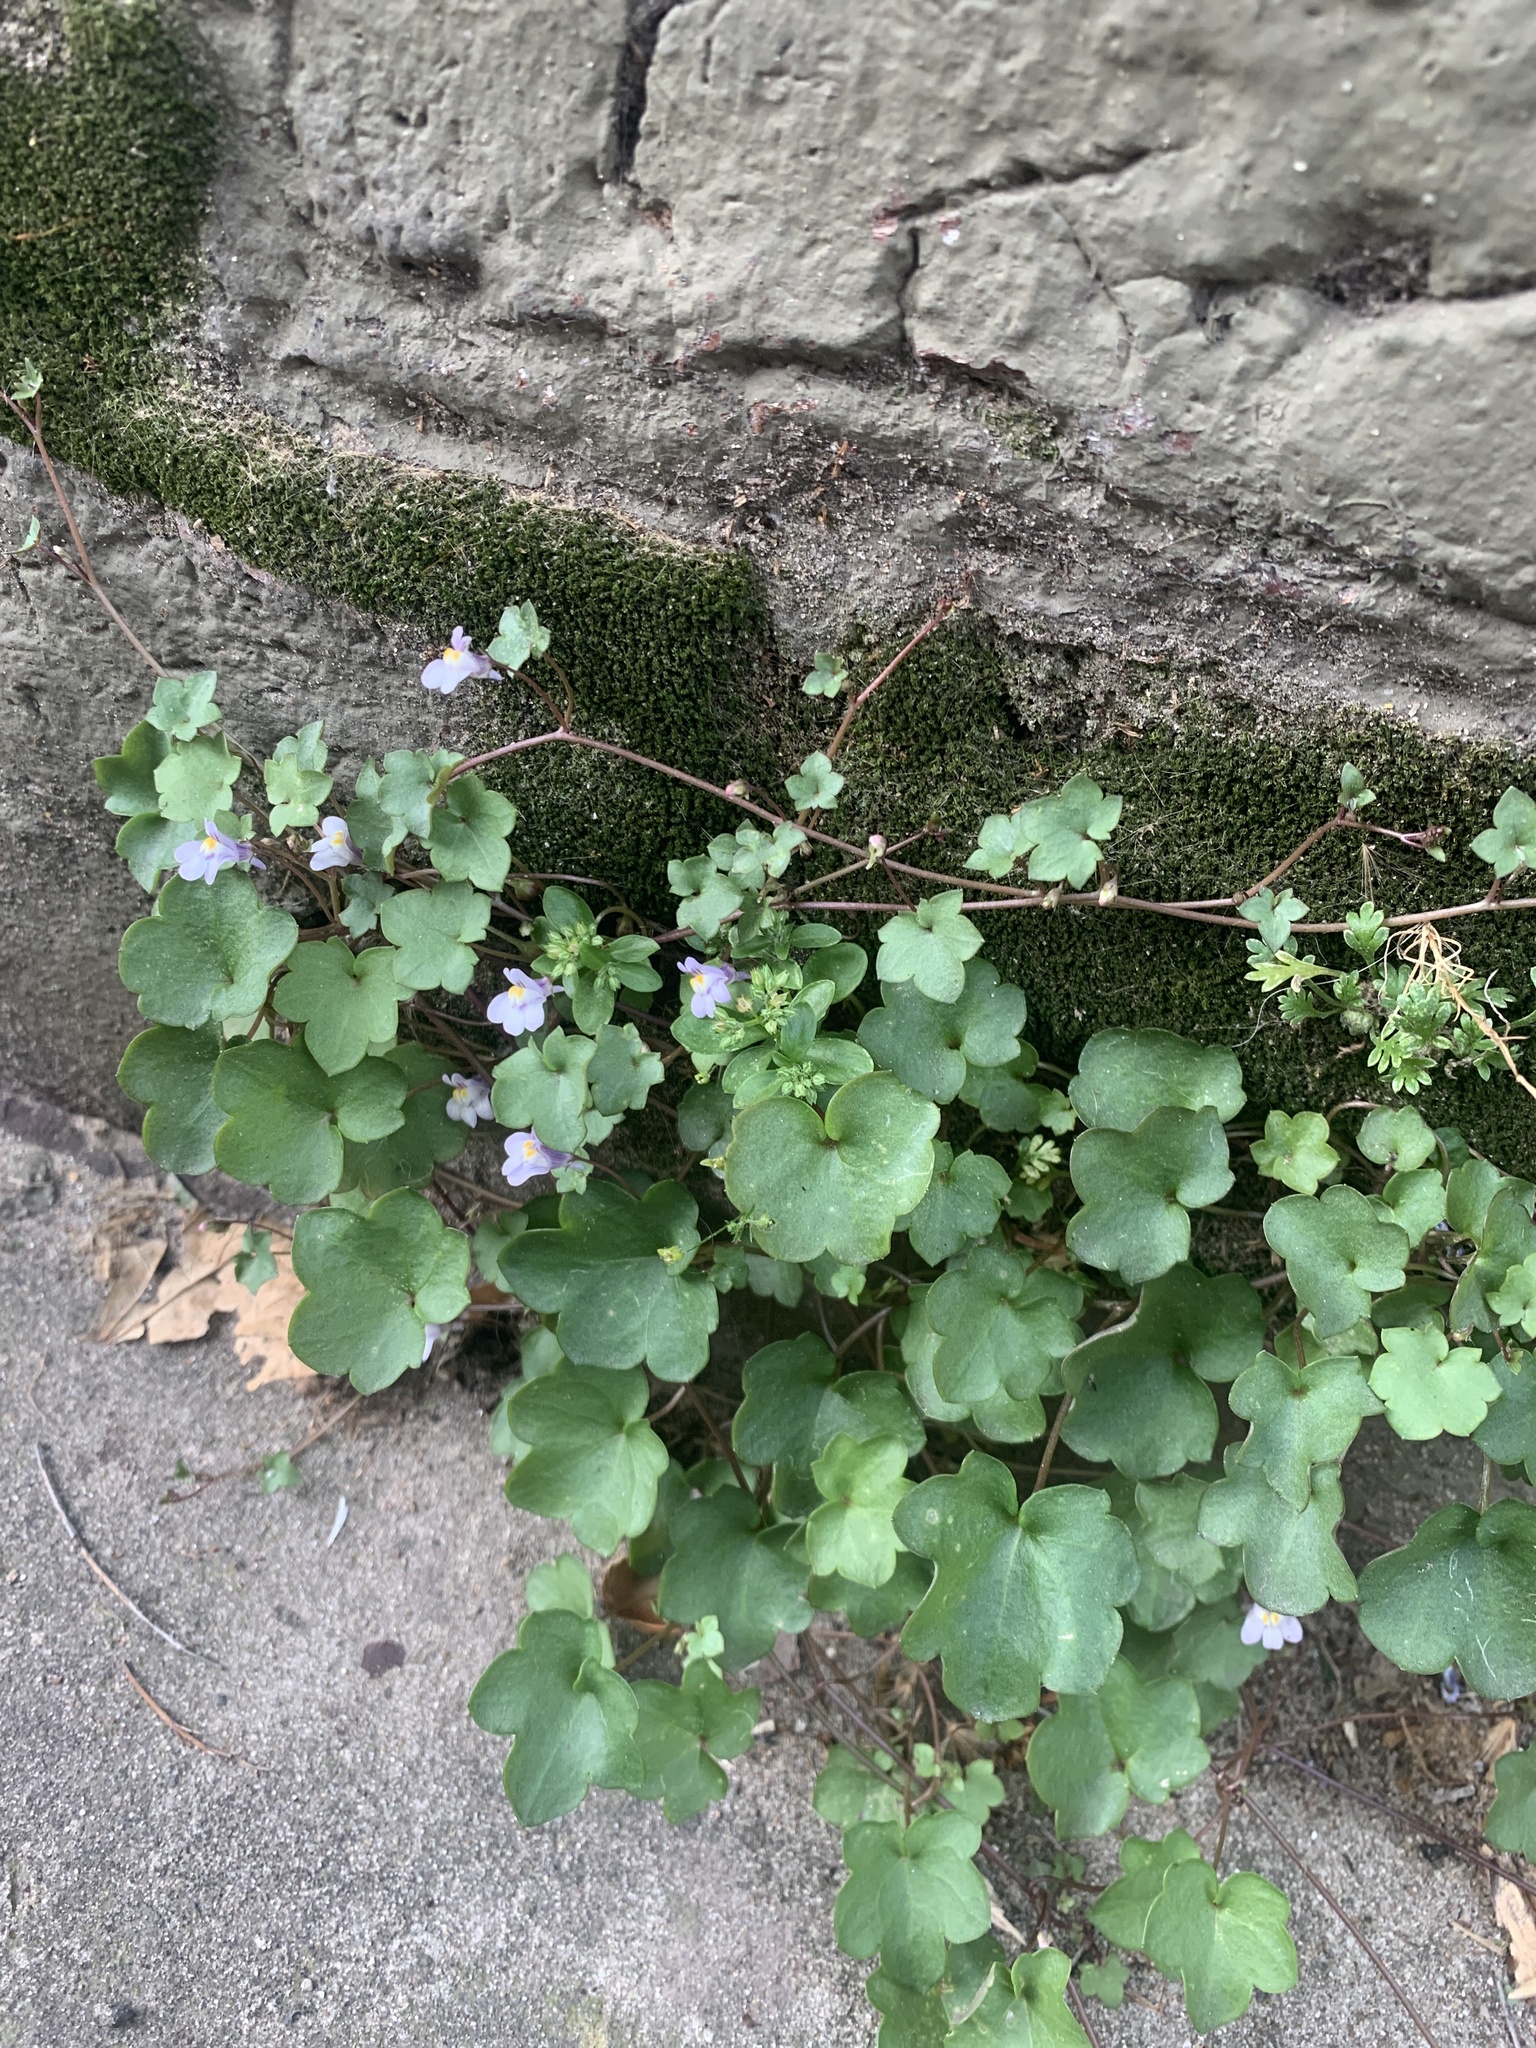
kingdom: Plantae
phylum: Tracheophyta
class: Magnoliopsida
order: Lamiales
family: Plantaginaceae
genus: Cymbalaria
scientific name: Cymbalaria muralis
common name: Ivy-leaved toadflax
